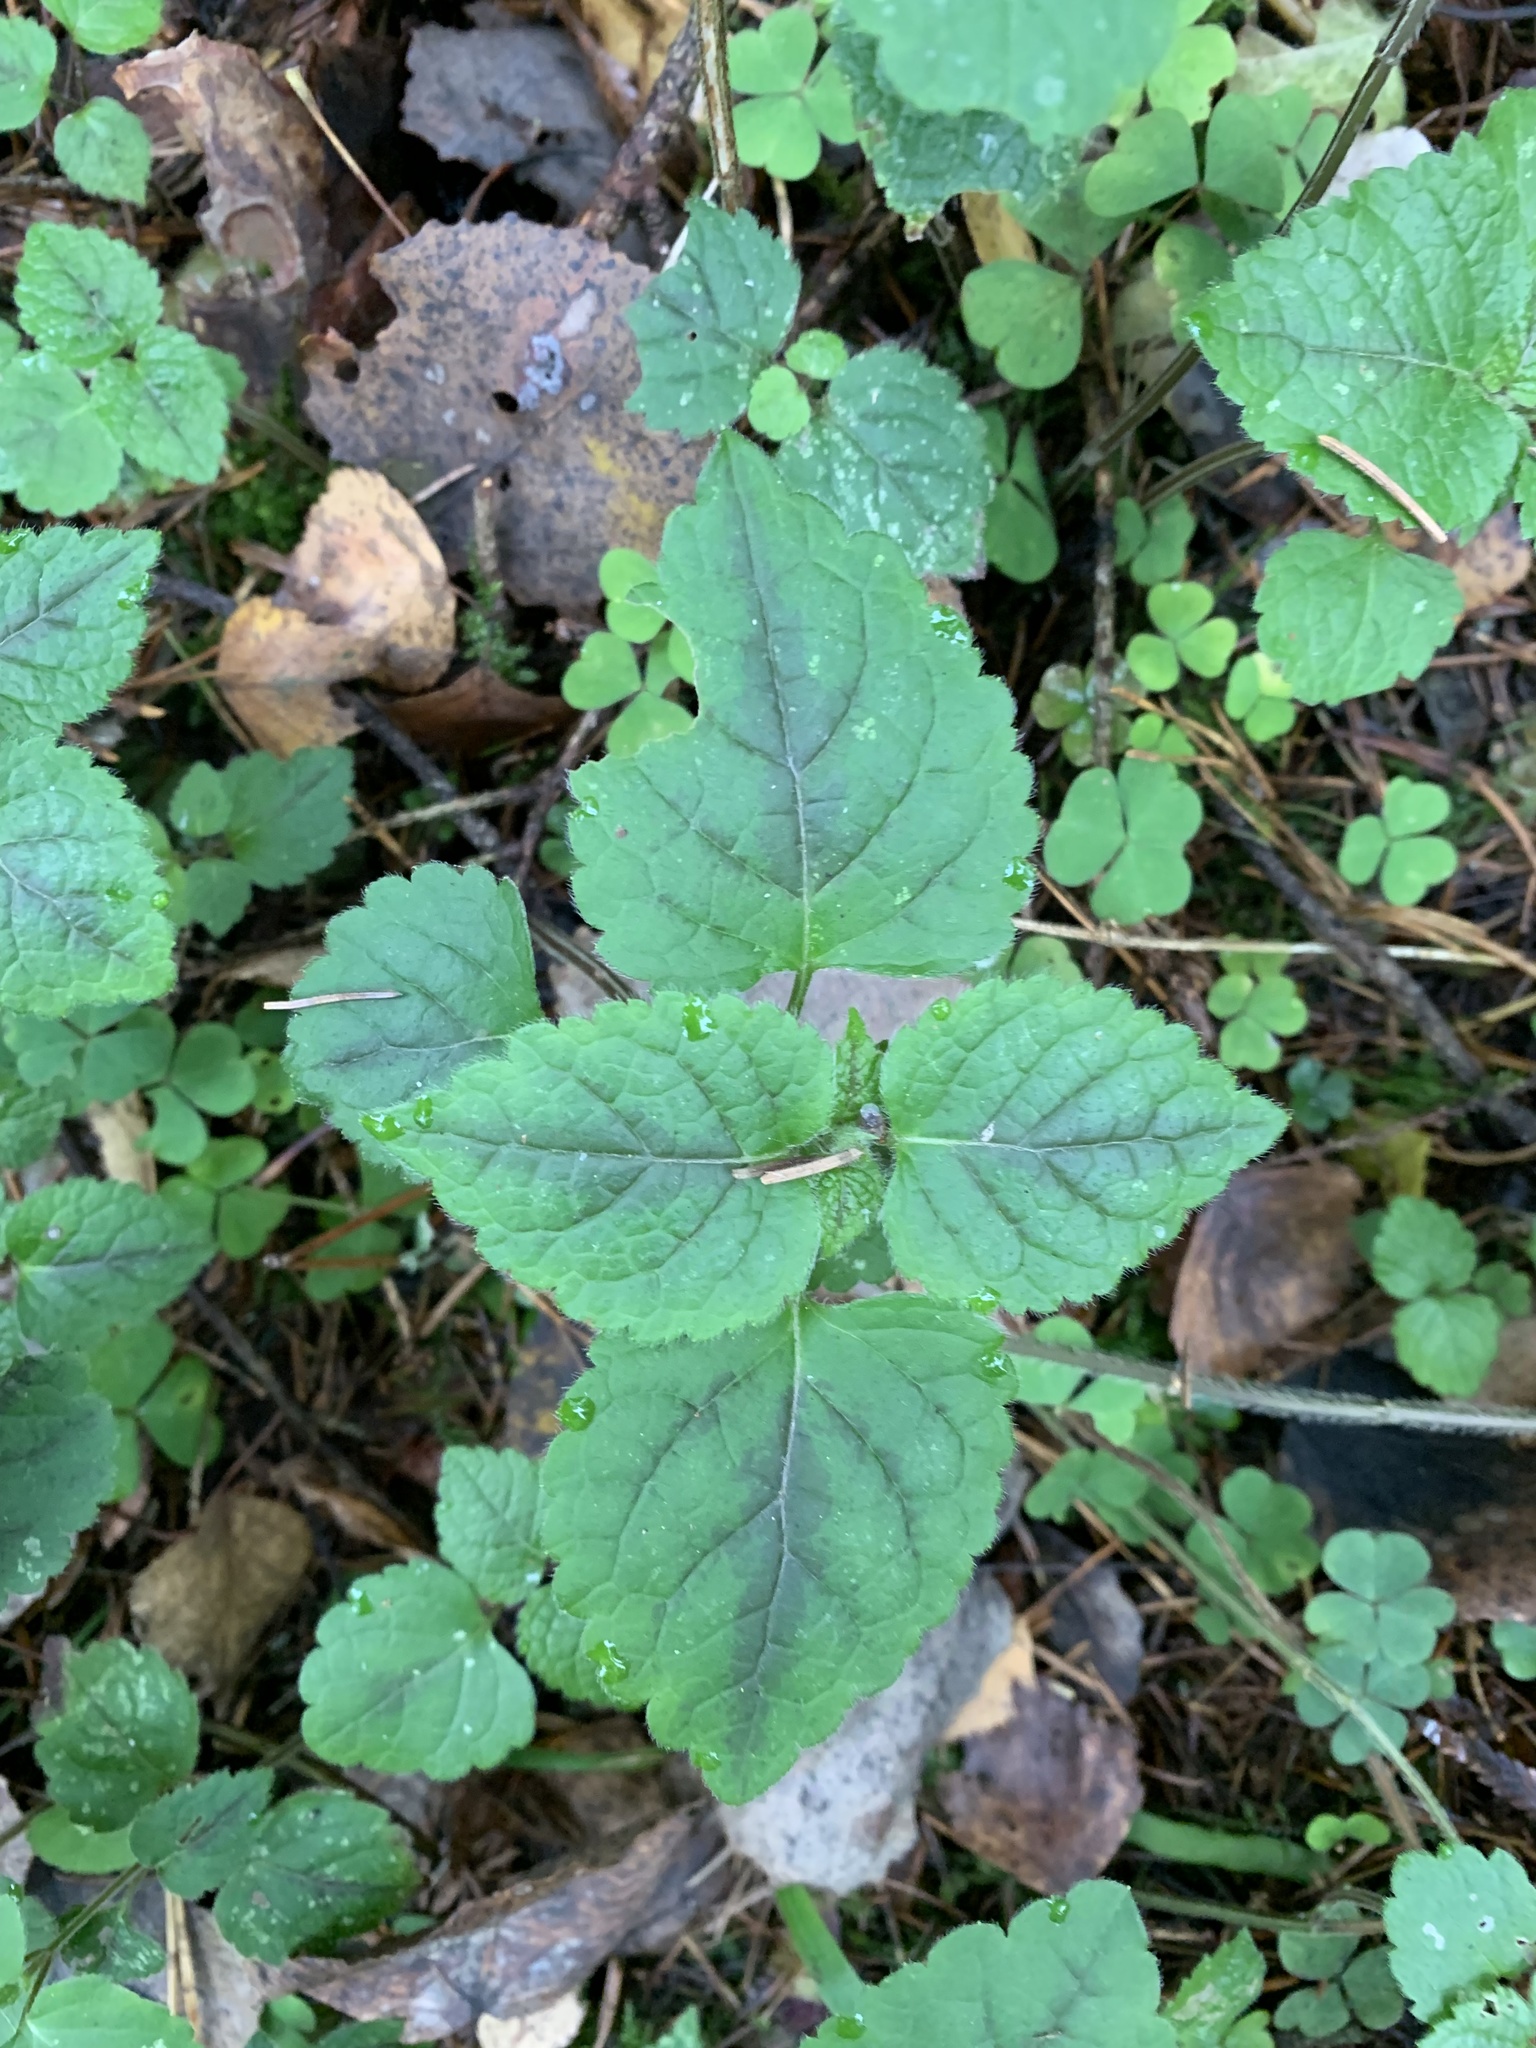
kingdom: Plantae
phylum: Tracheophyta
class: Magnoliopsida
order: Lamiales
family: Lamiaceae
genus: Lamium
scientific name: Lamium galeobdolon
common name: Yellow archangel
